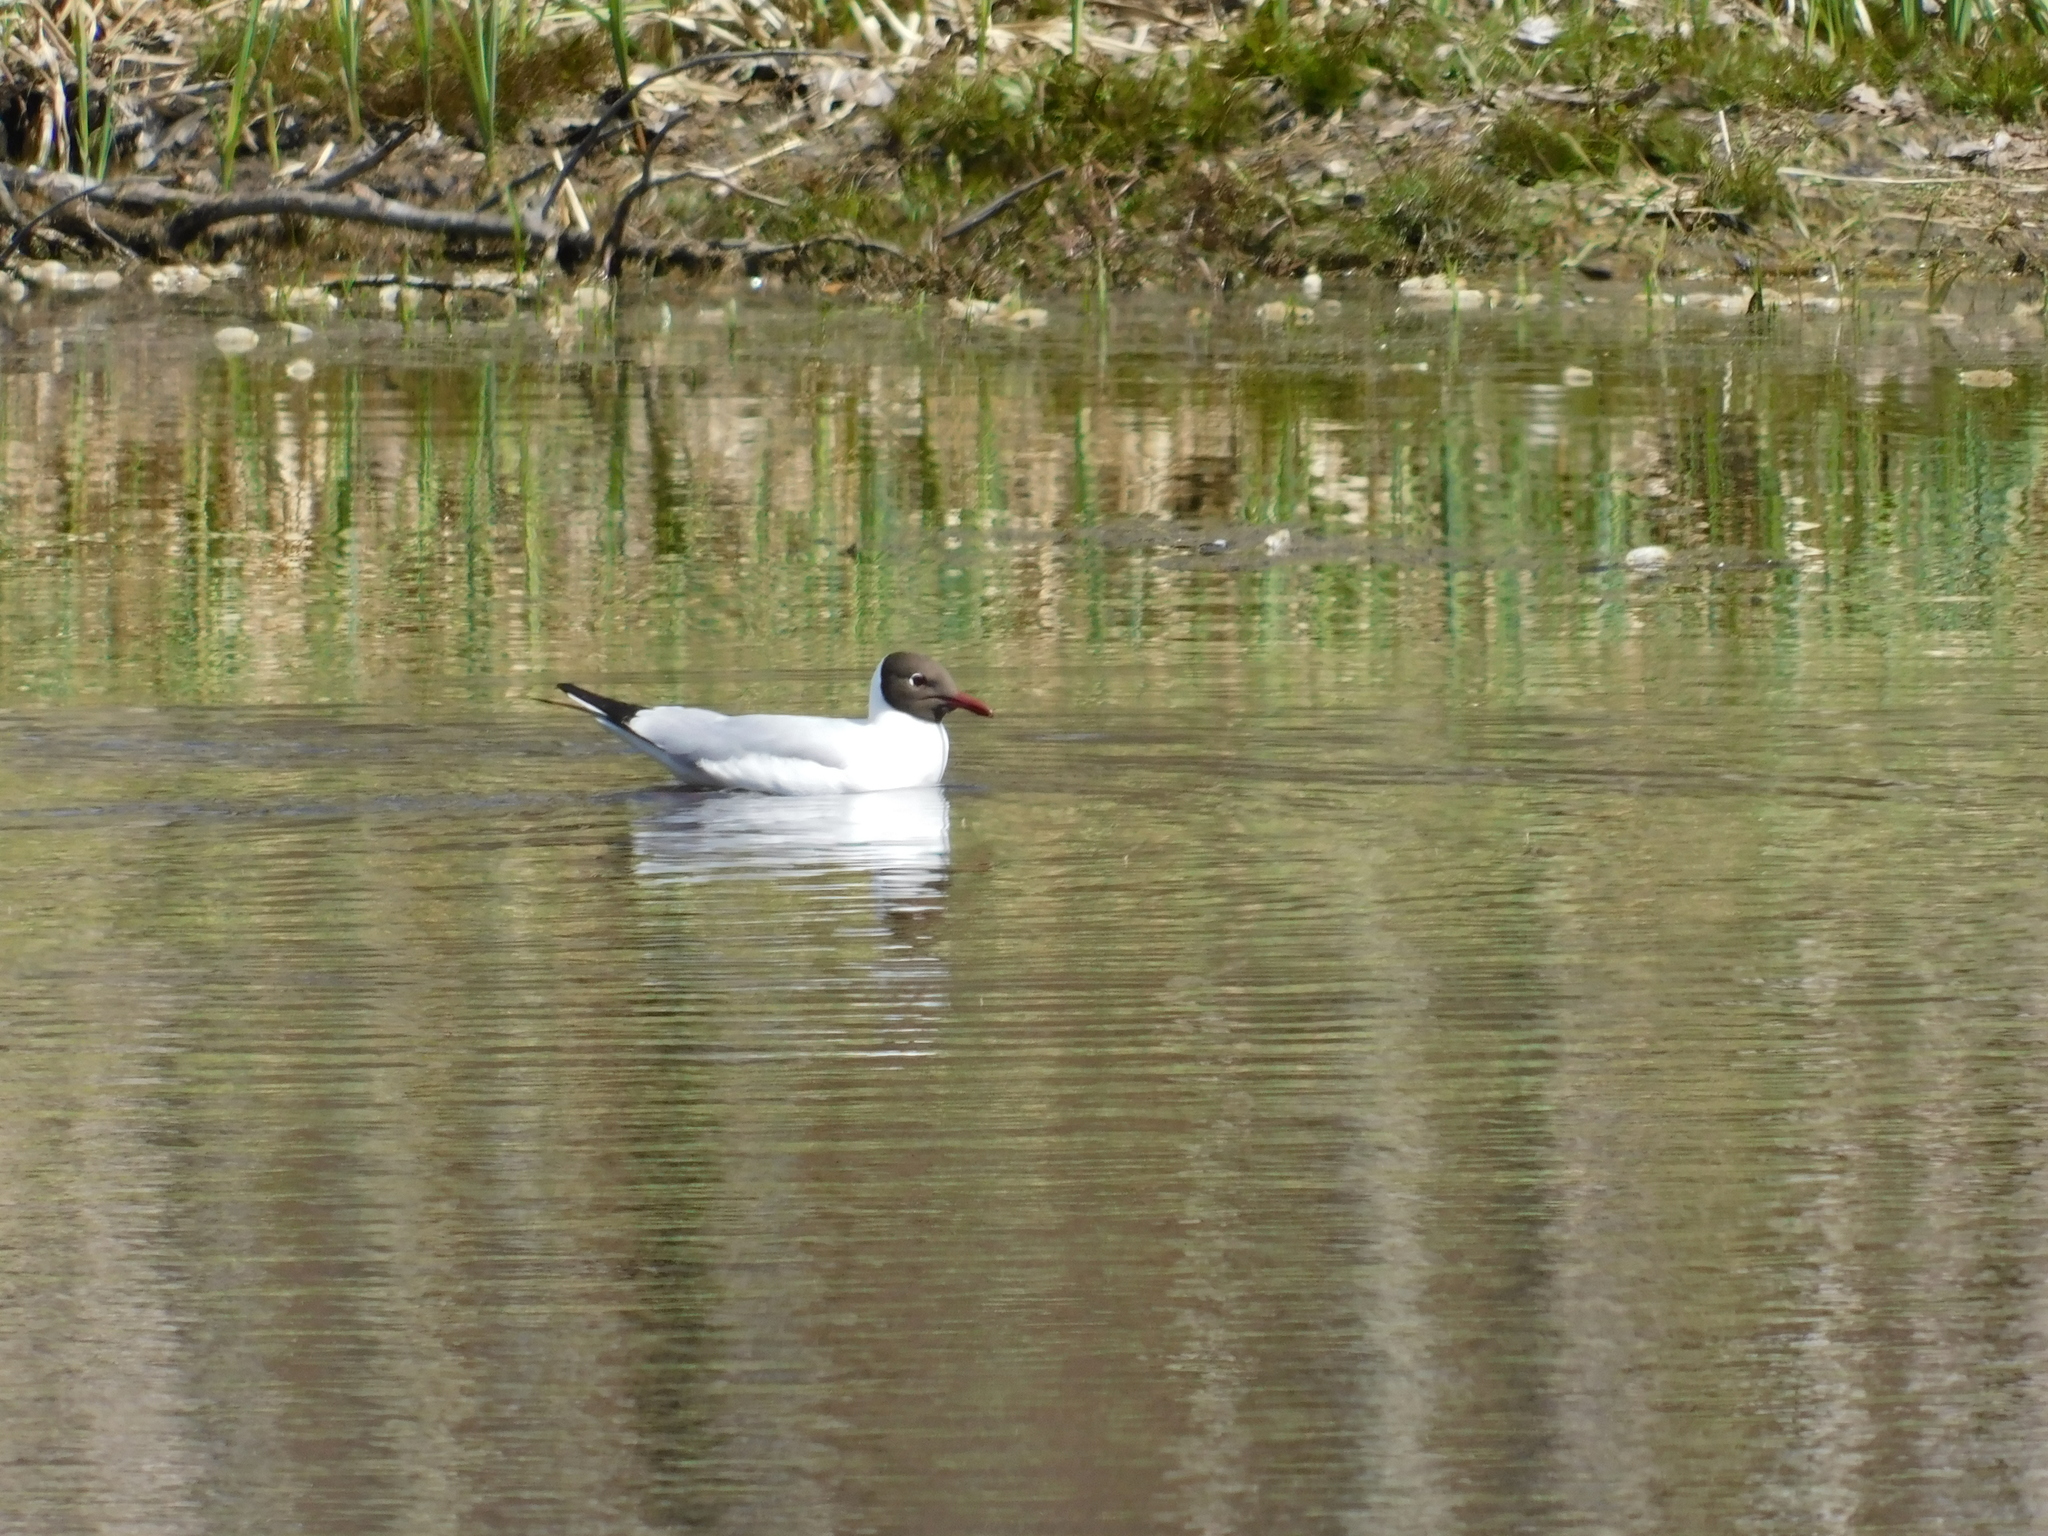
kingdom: Animalia
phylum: Chordata
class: Aves
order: Charadriiformes
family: Laridae
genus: Chroicocephalus
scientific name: Chroicocephalus ridibundus
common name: Black-headed gull
